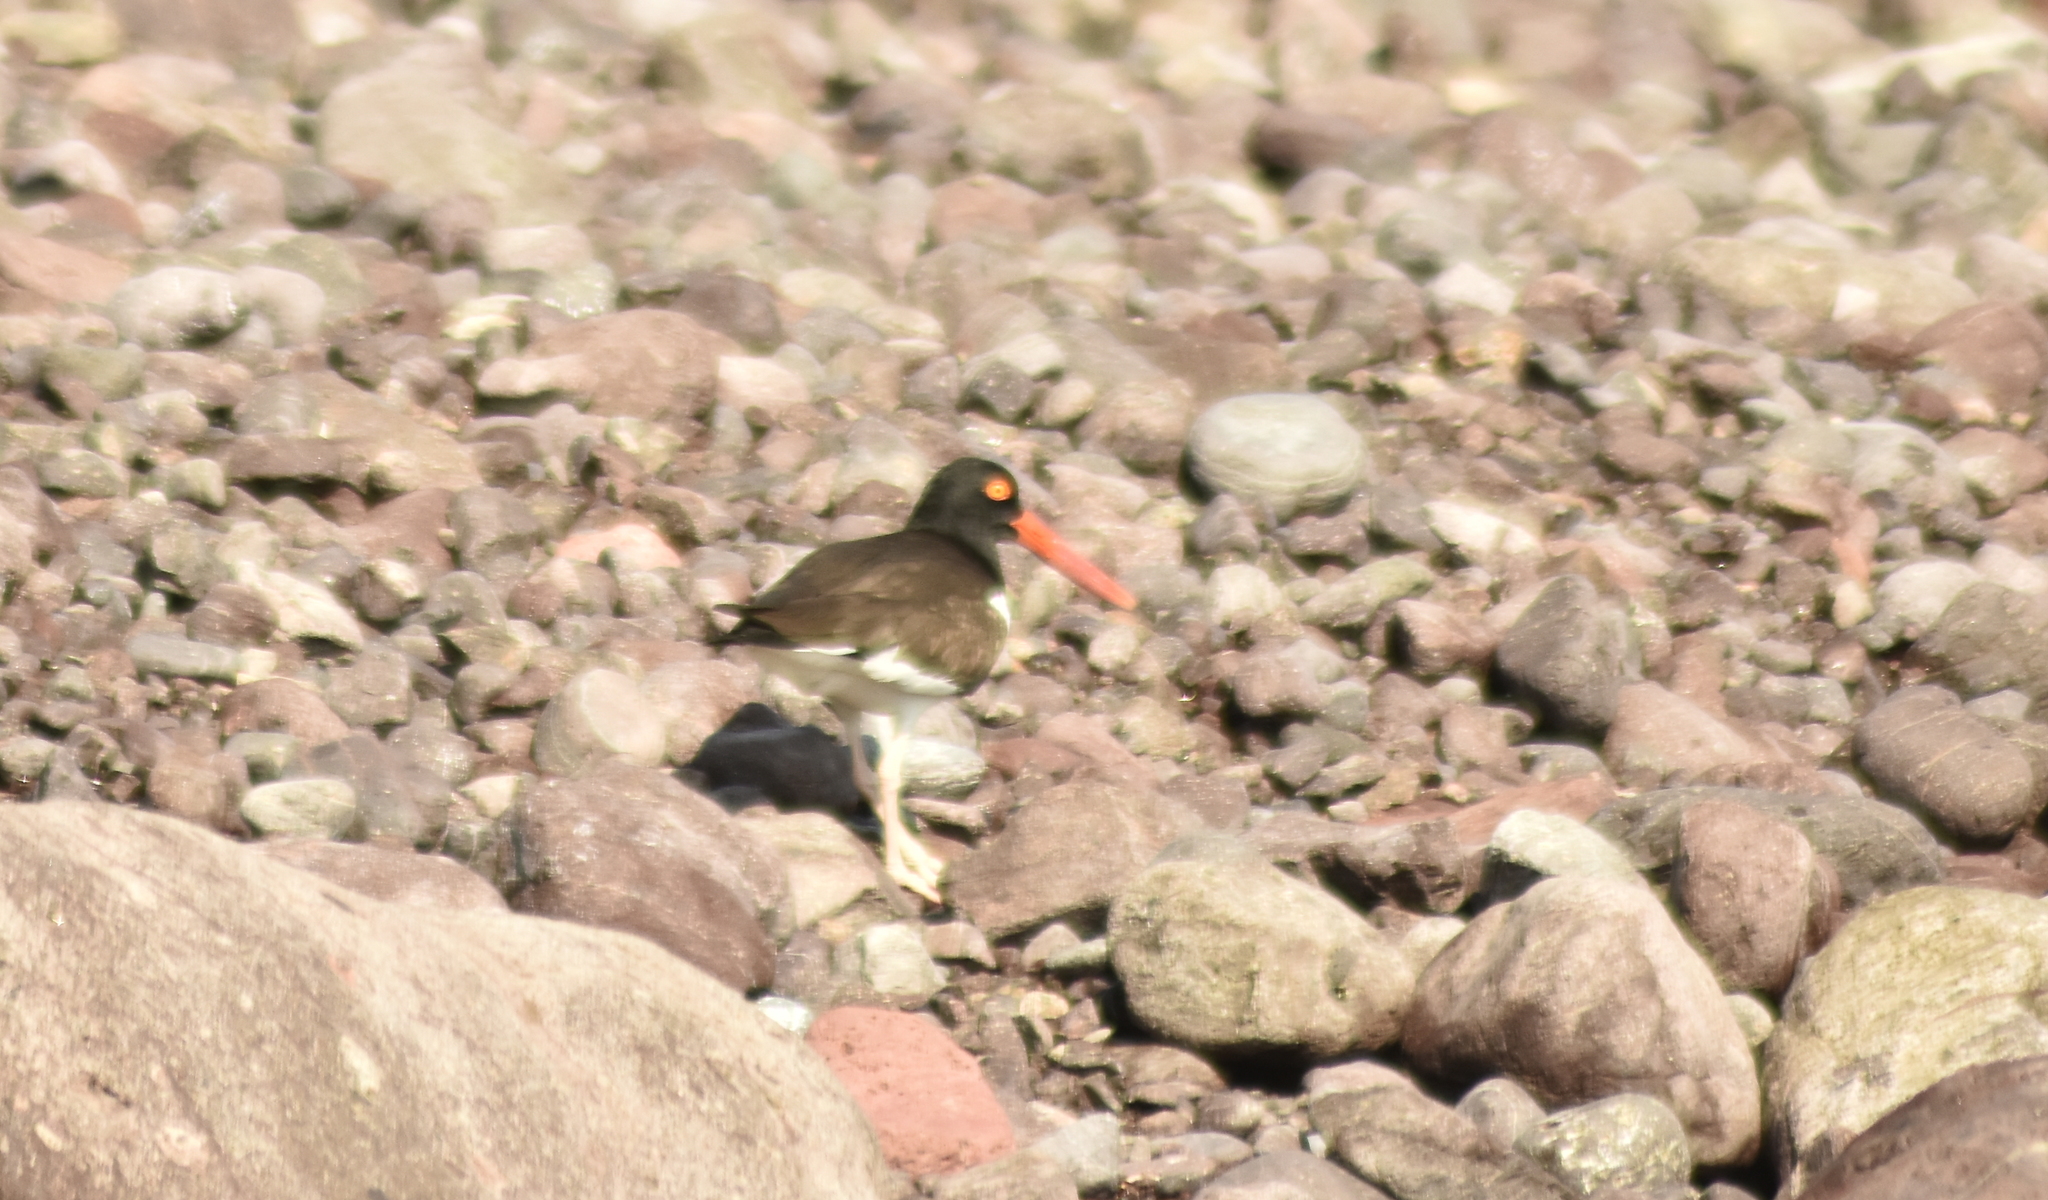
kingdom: Animalia
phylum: Chordata
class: Aves
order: Charadriiformes
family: Haematopodidae
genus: Haematopus
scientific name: Haematopus palliatus
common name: American oystercatcher
